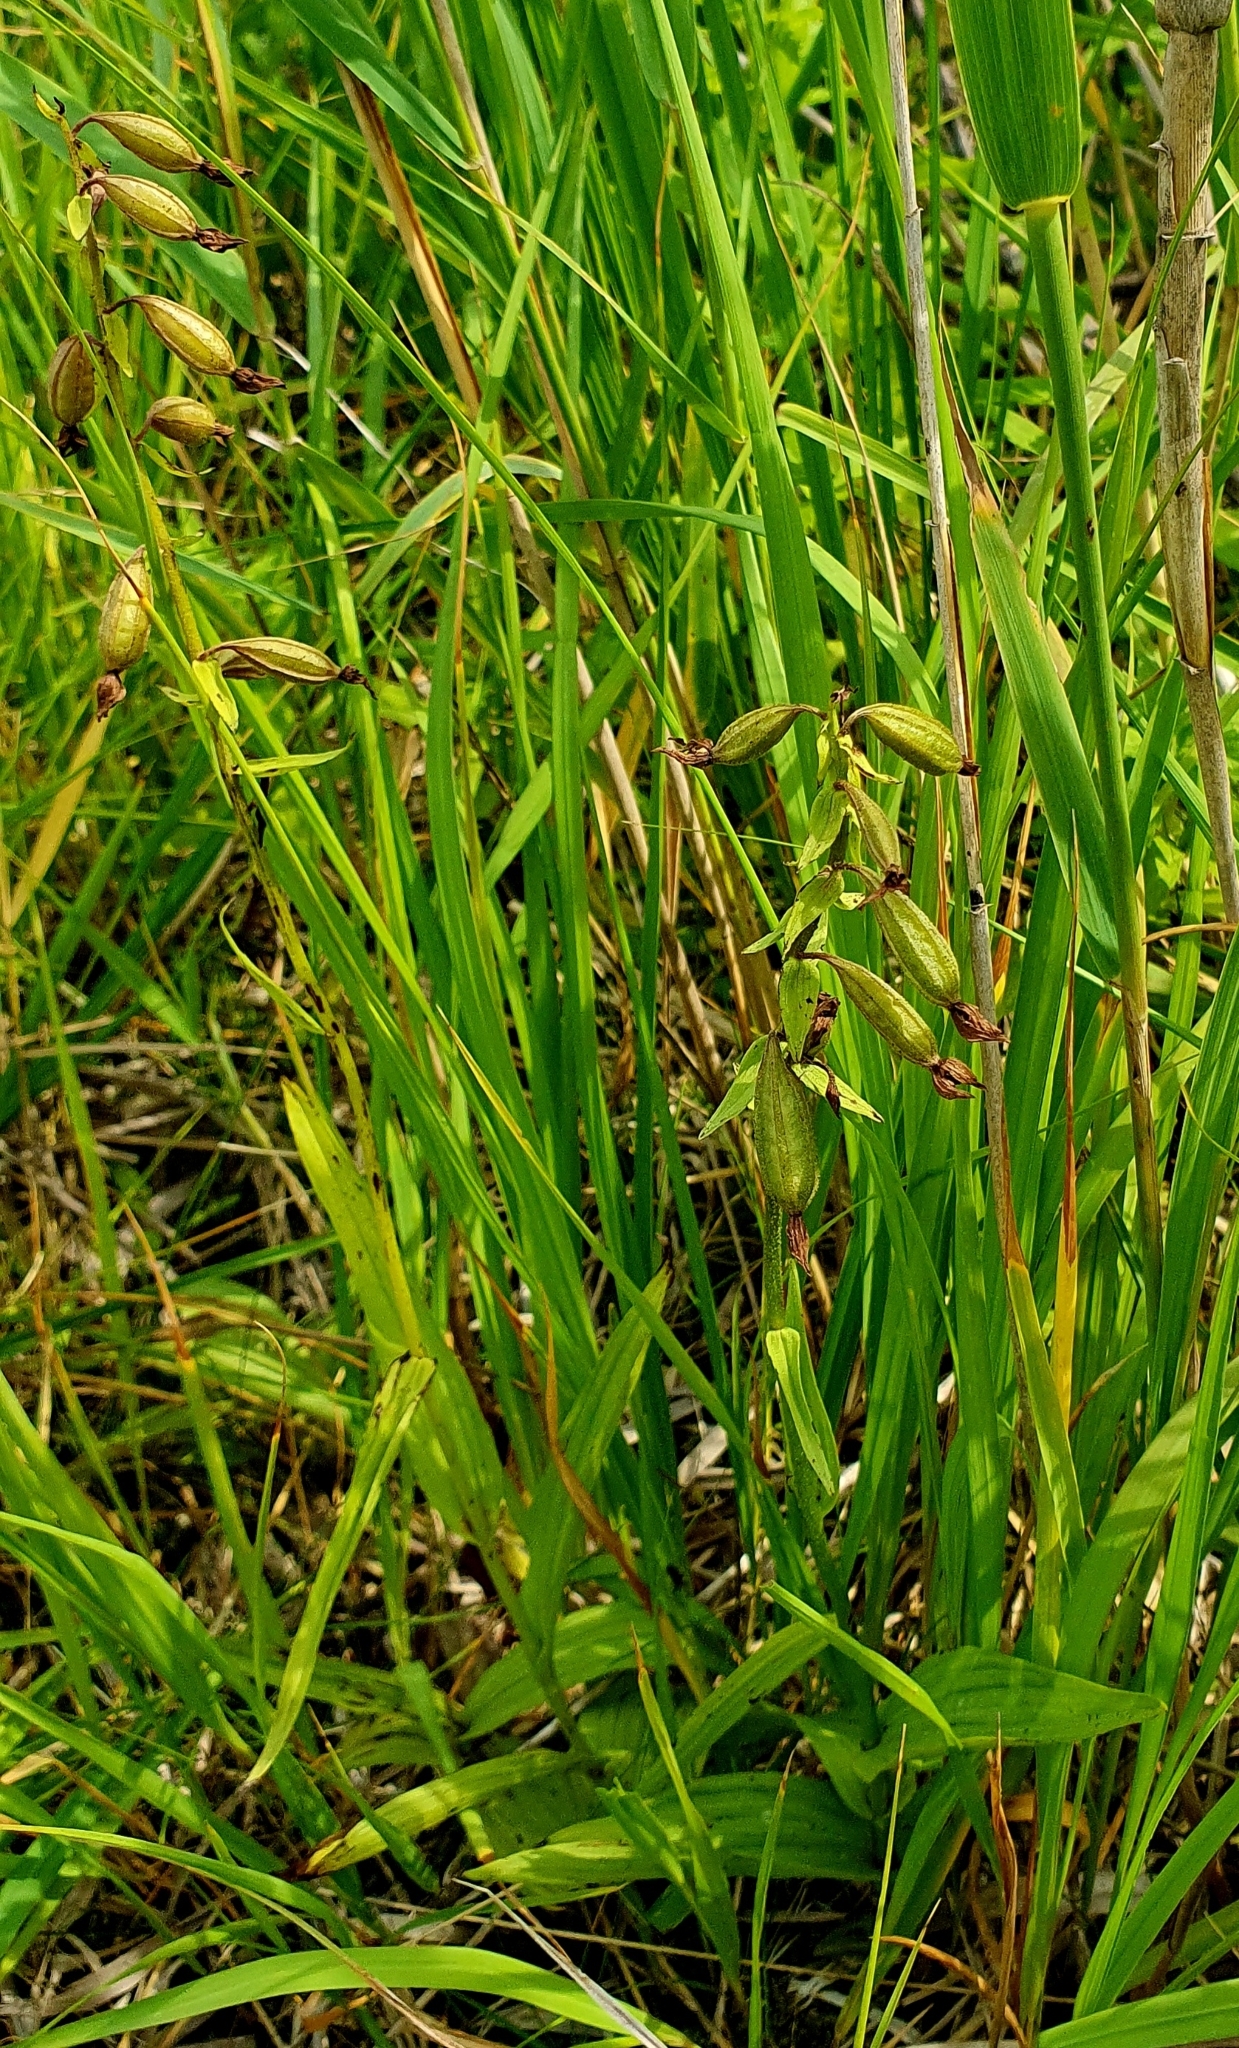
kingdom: Plantae
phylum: Tracheophyta
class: Liliopsida
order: Asparagales
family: Orchidaceae
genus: Epipactis
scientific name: Epipactis palustris
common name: Marsh helleborine
